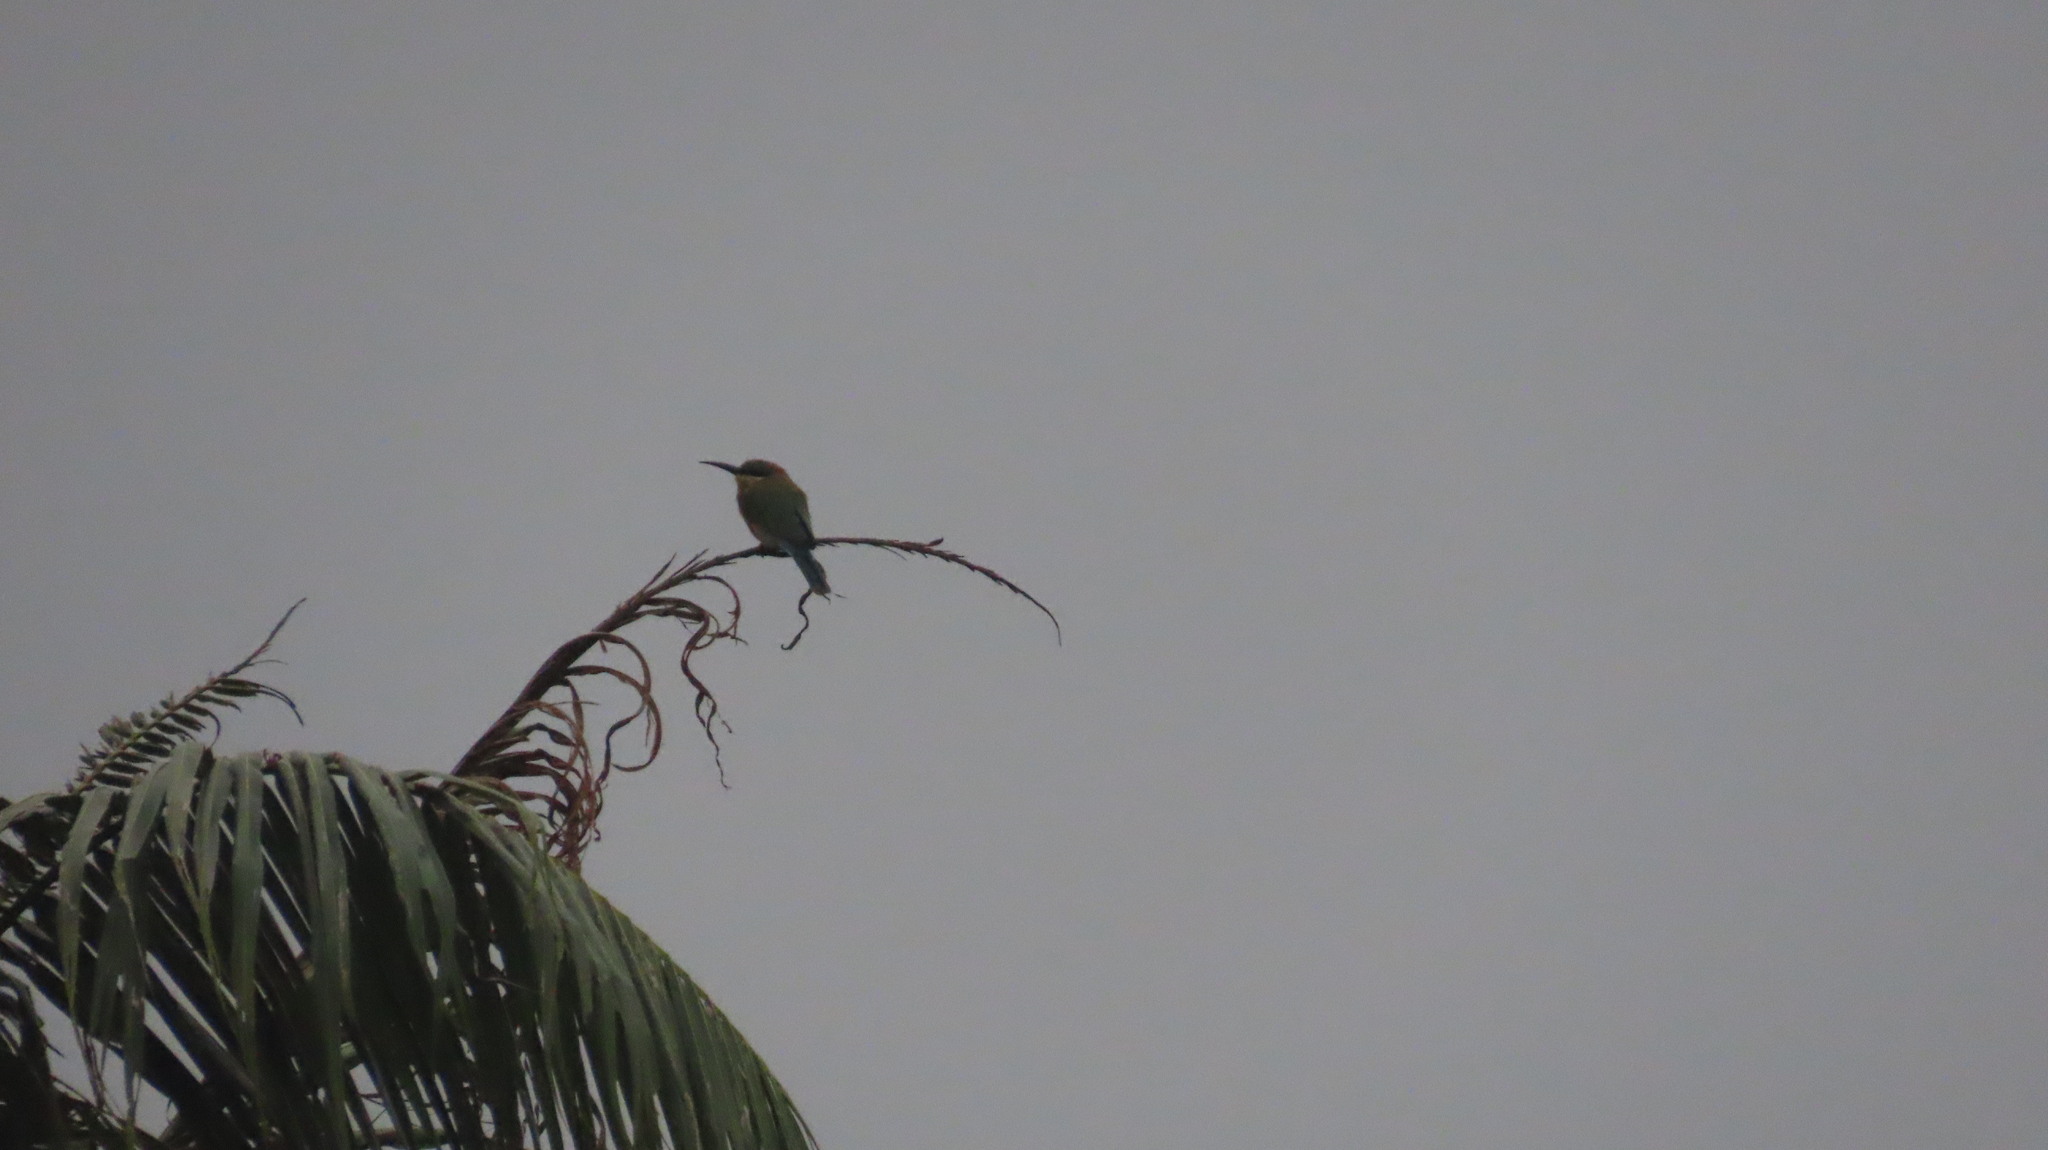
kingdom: Animalia
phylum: Chordata
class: Aves
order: Coraciiformes
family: Meropidae
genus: Merops
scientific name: Merops philippinus
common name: Blue-tailed bee-eater
